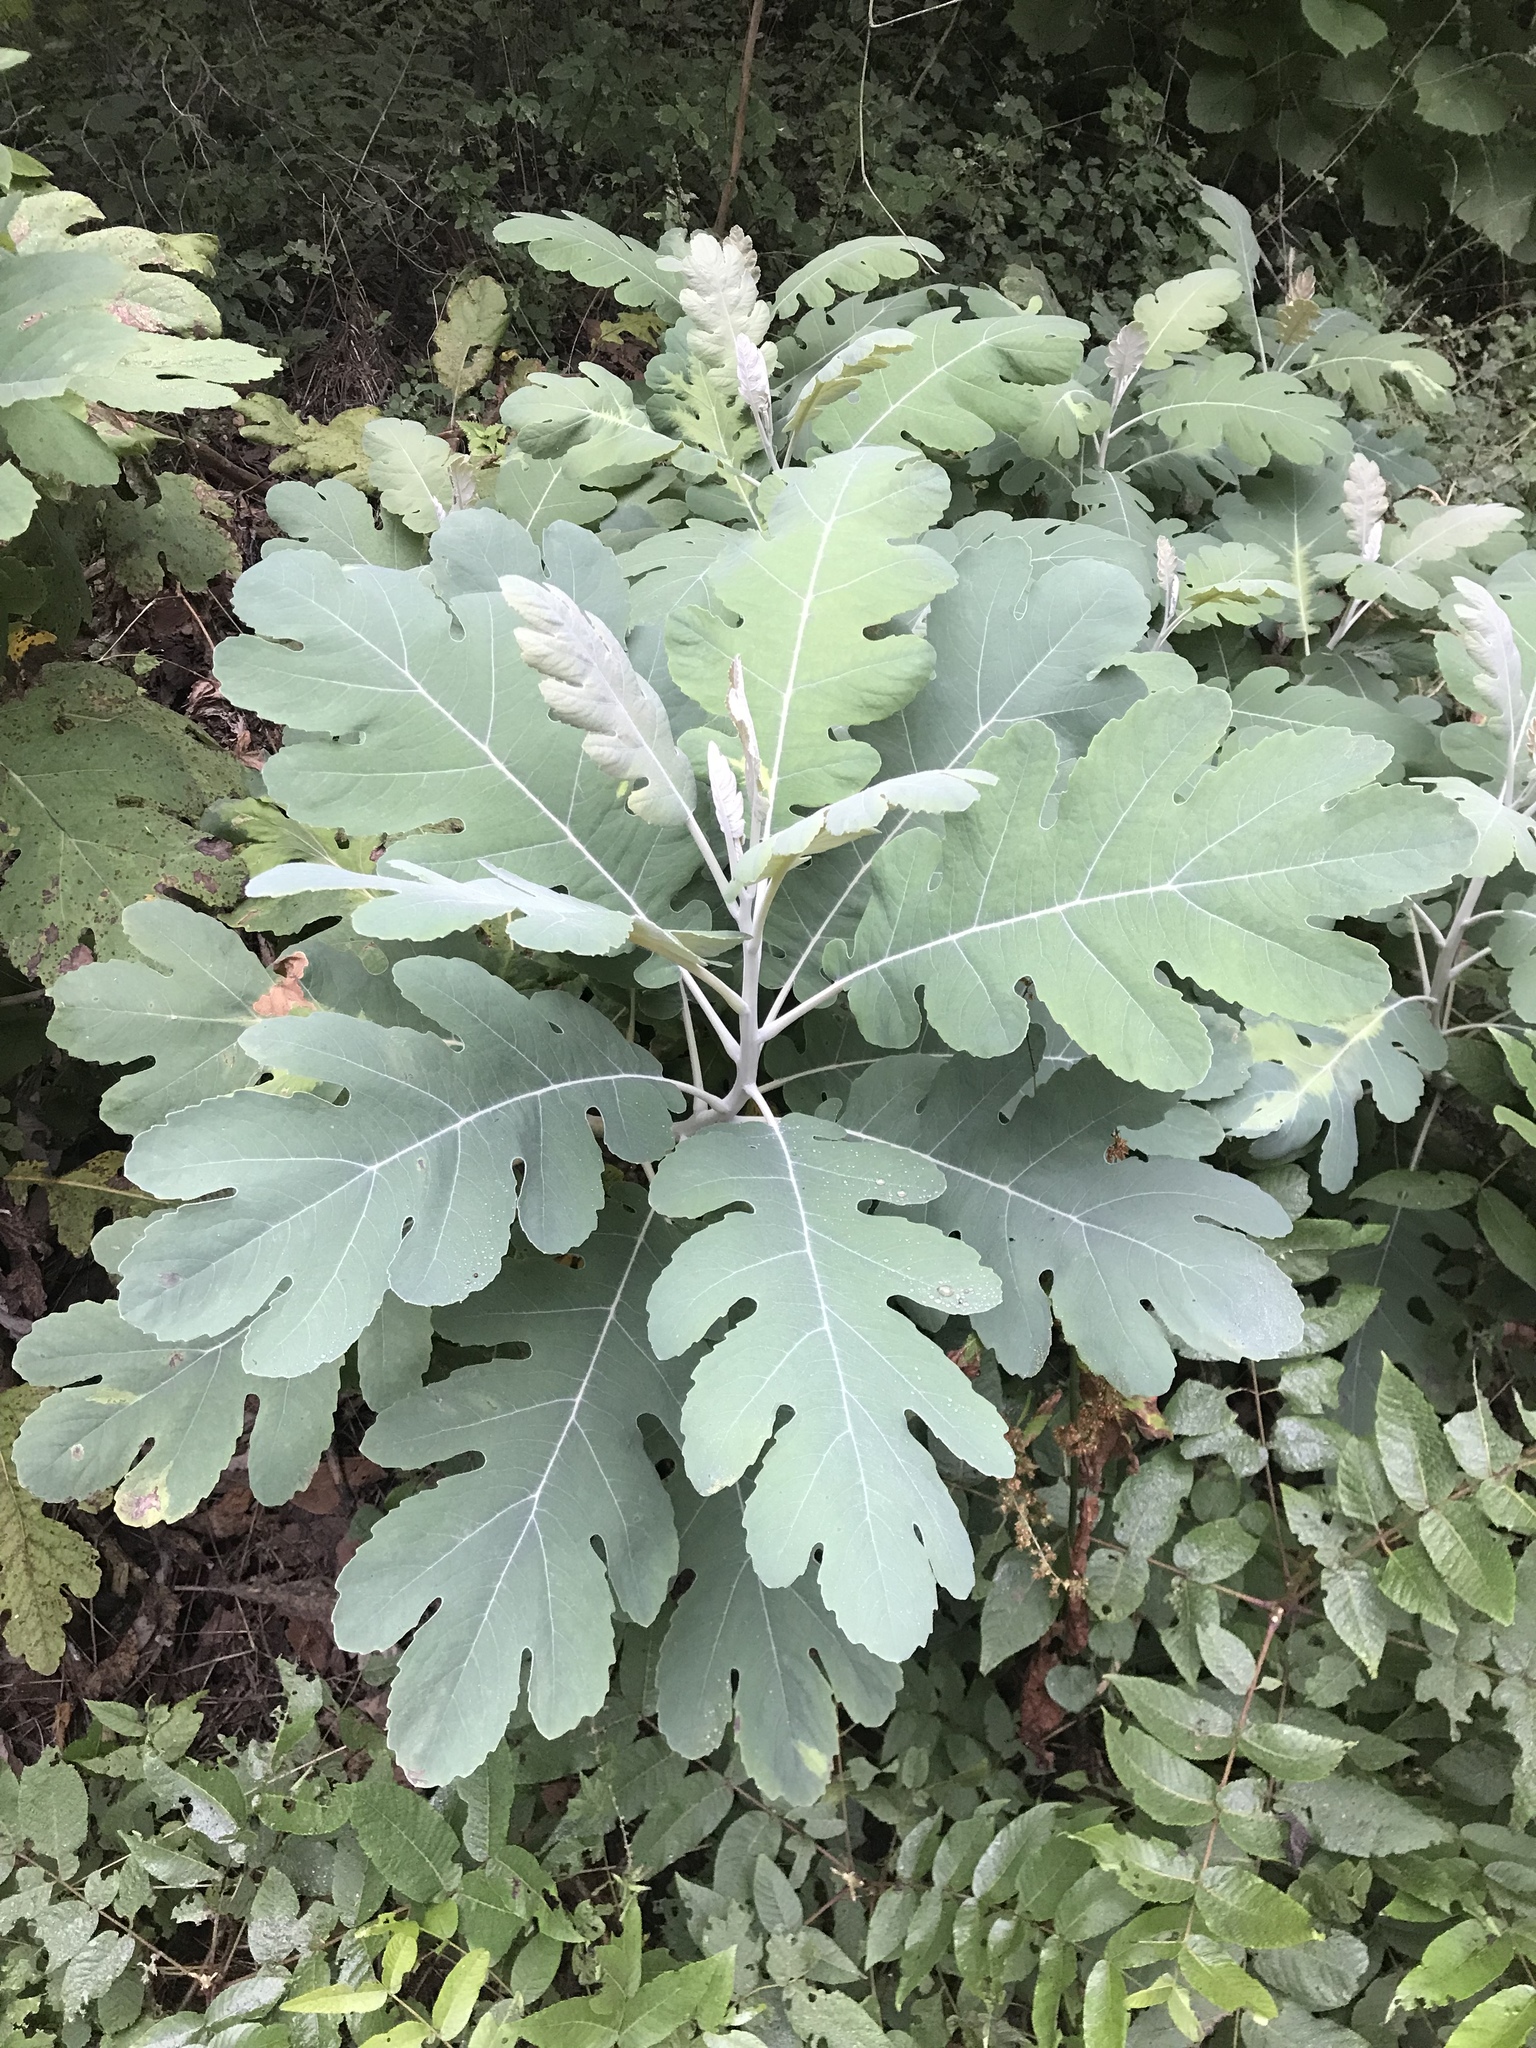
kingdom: Plantae
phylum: Tracheophyta
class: Magnoliopsida
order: Ranunculales
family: Papaveraceae
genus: Bocconia
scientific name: Bocconia frutescens
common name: Tree poppy
